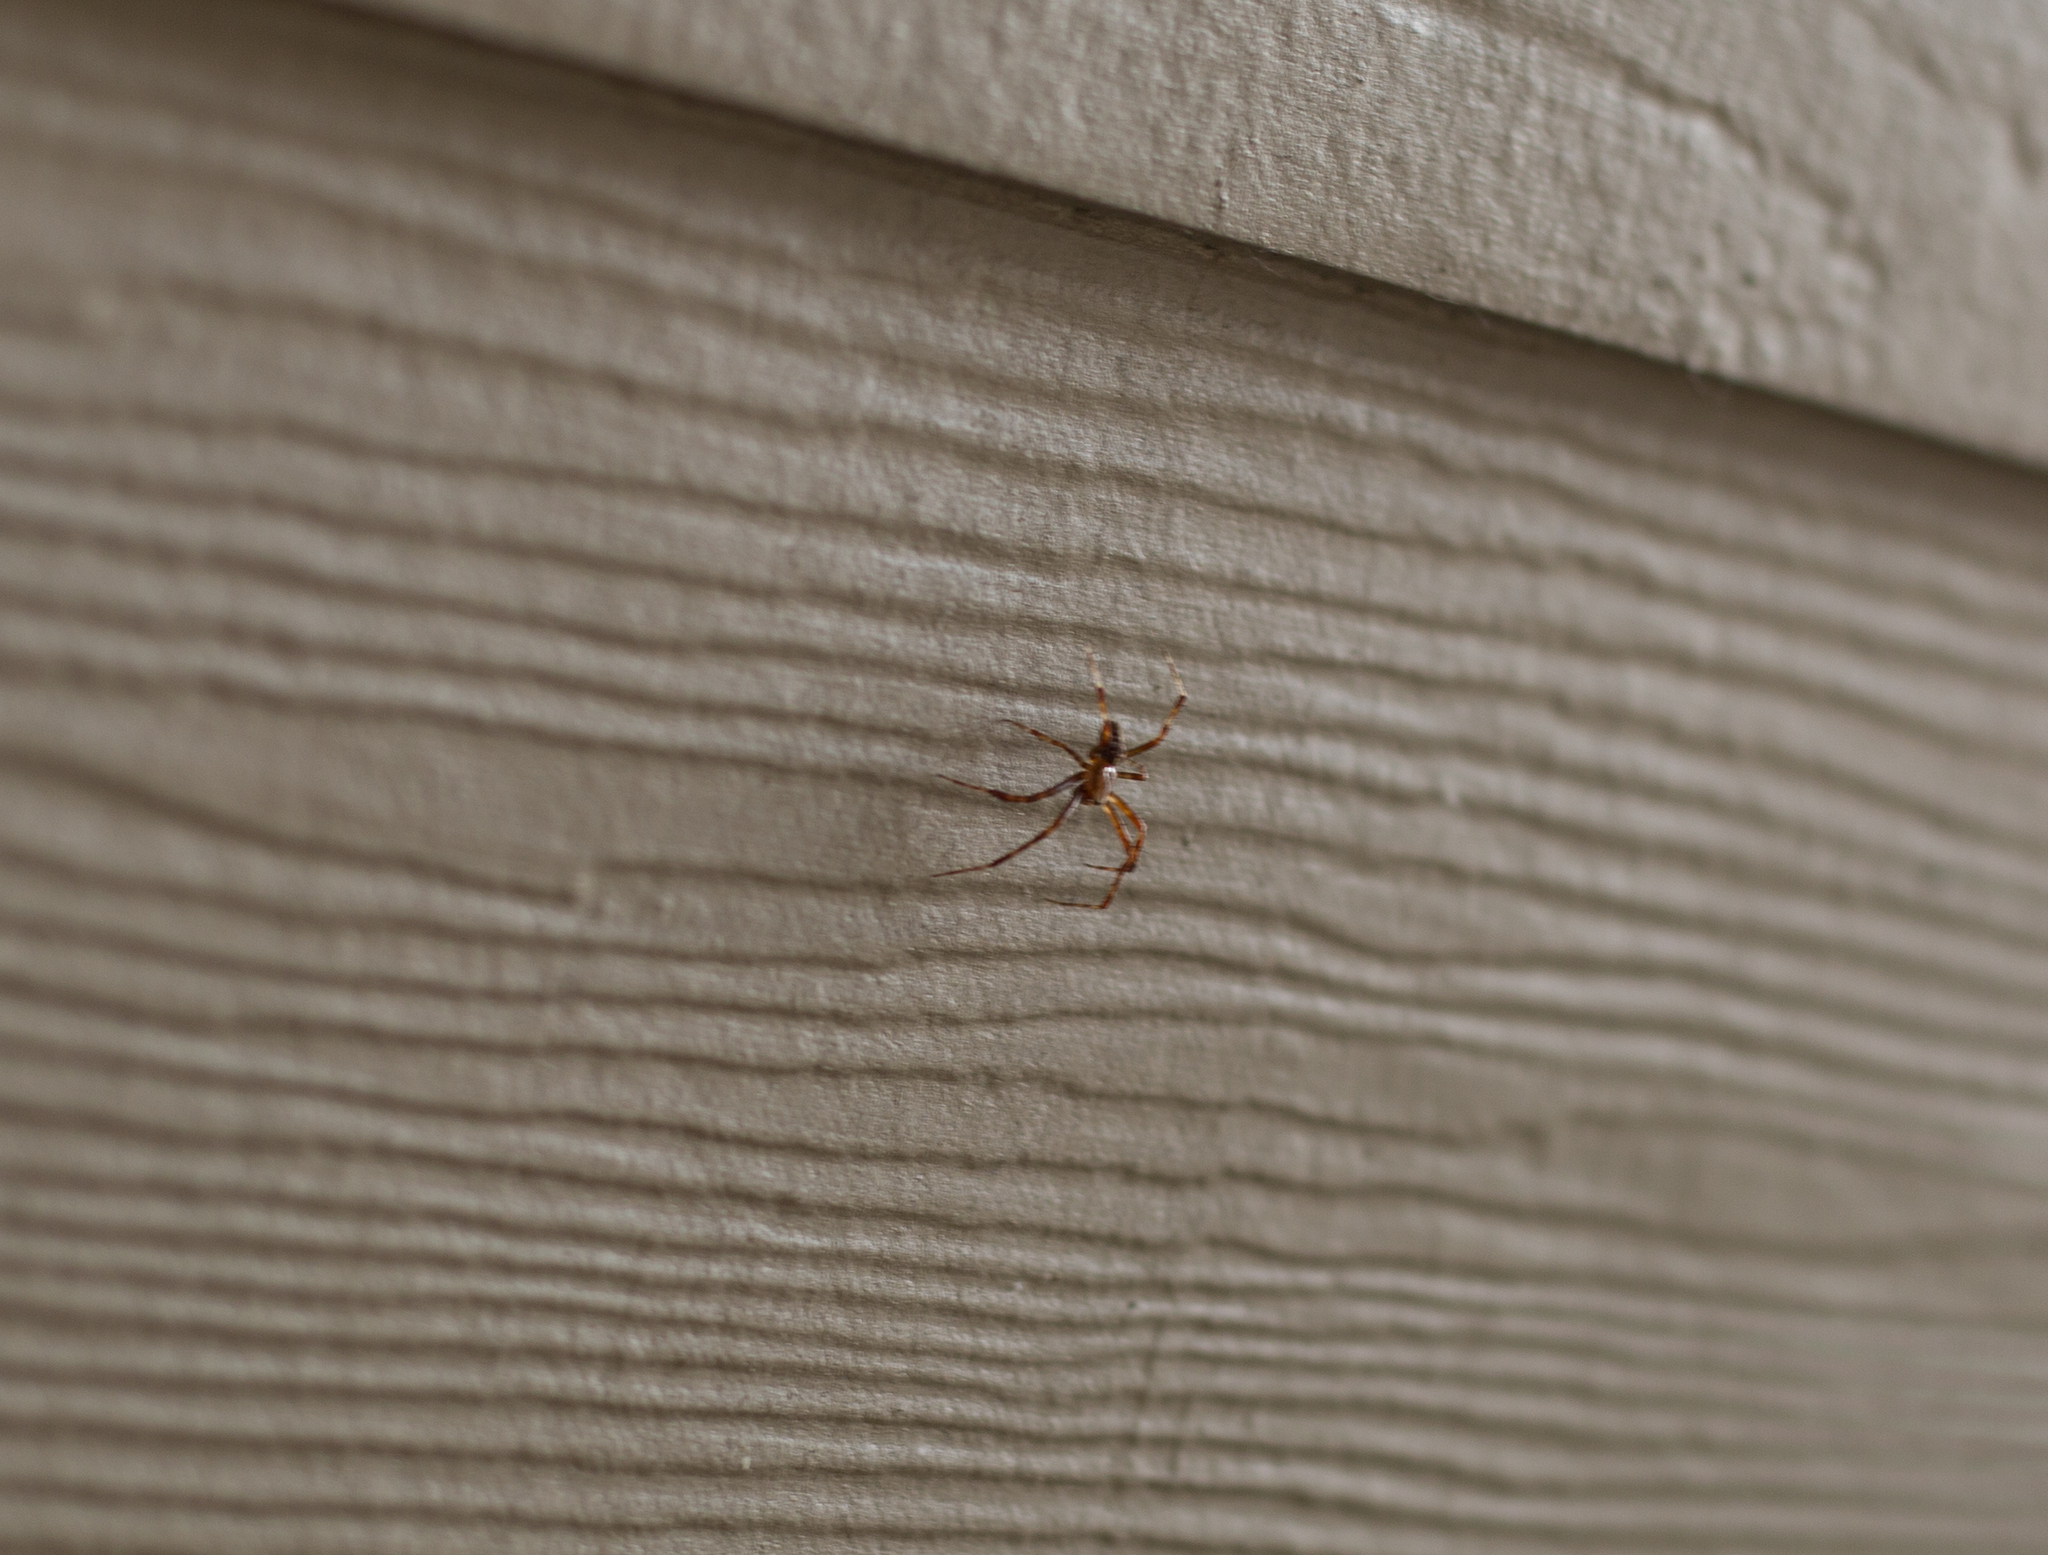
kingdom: Animalia
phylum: Arthropoda
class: Arachnida
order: Araneae
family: Araneidae
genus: Araneus
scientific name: Araneus diadematus
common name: Cross orbweaver
